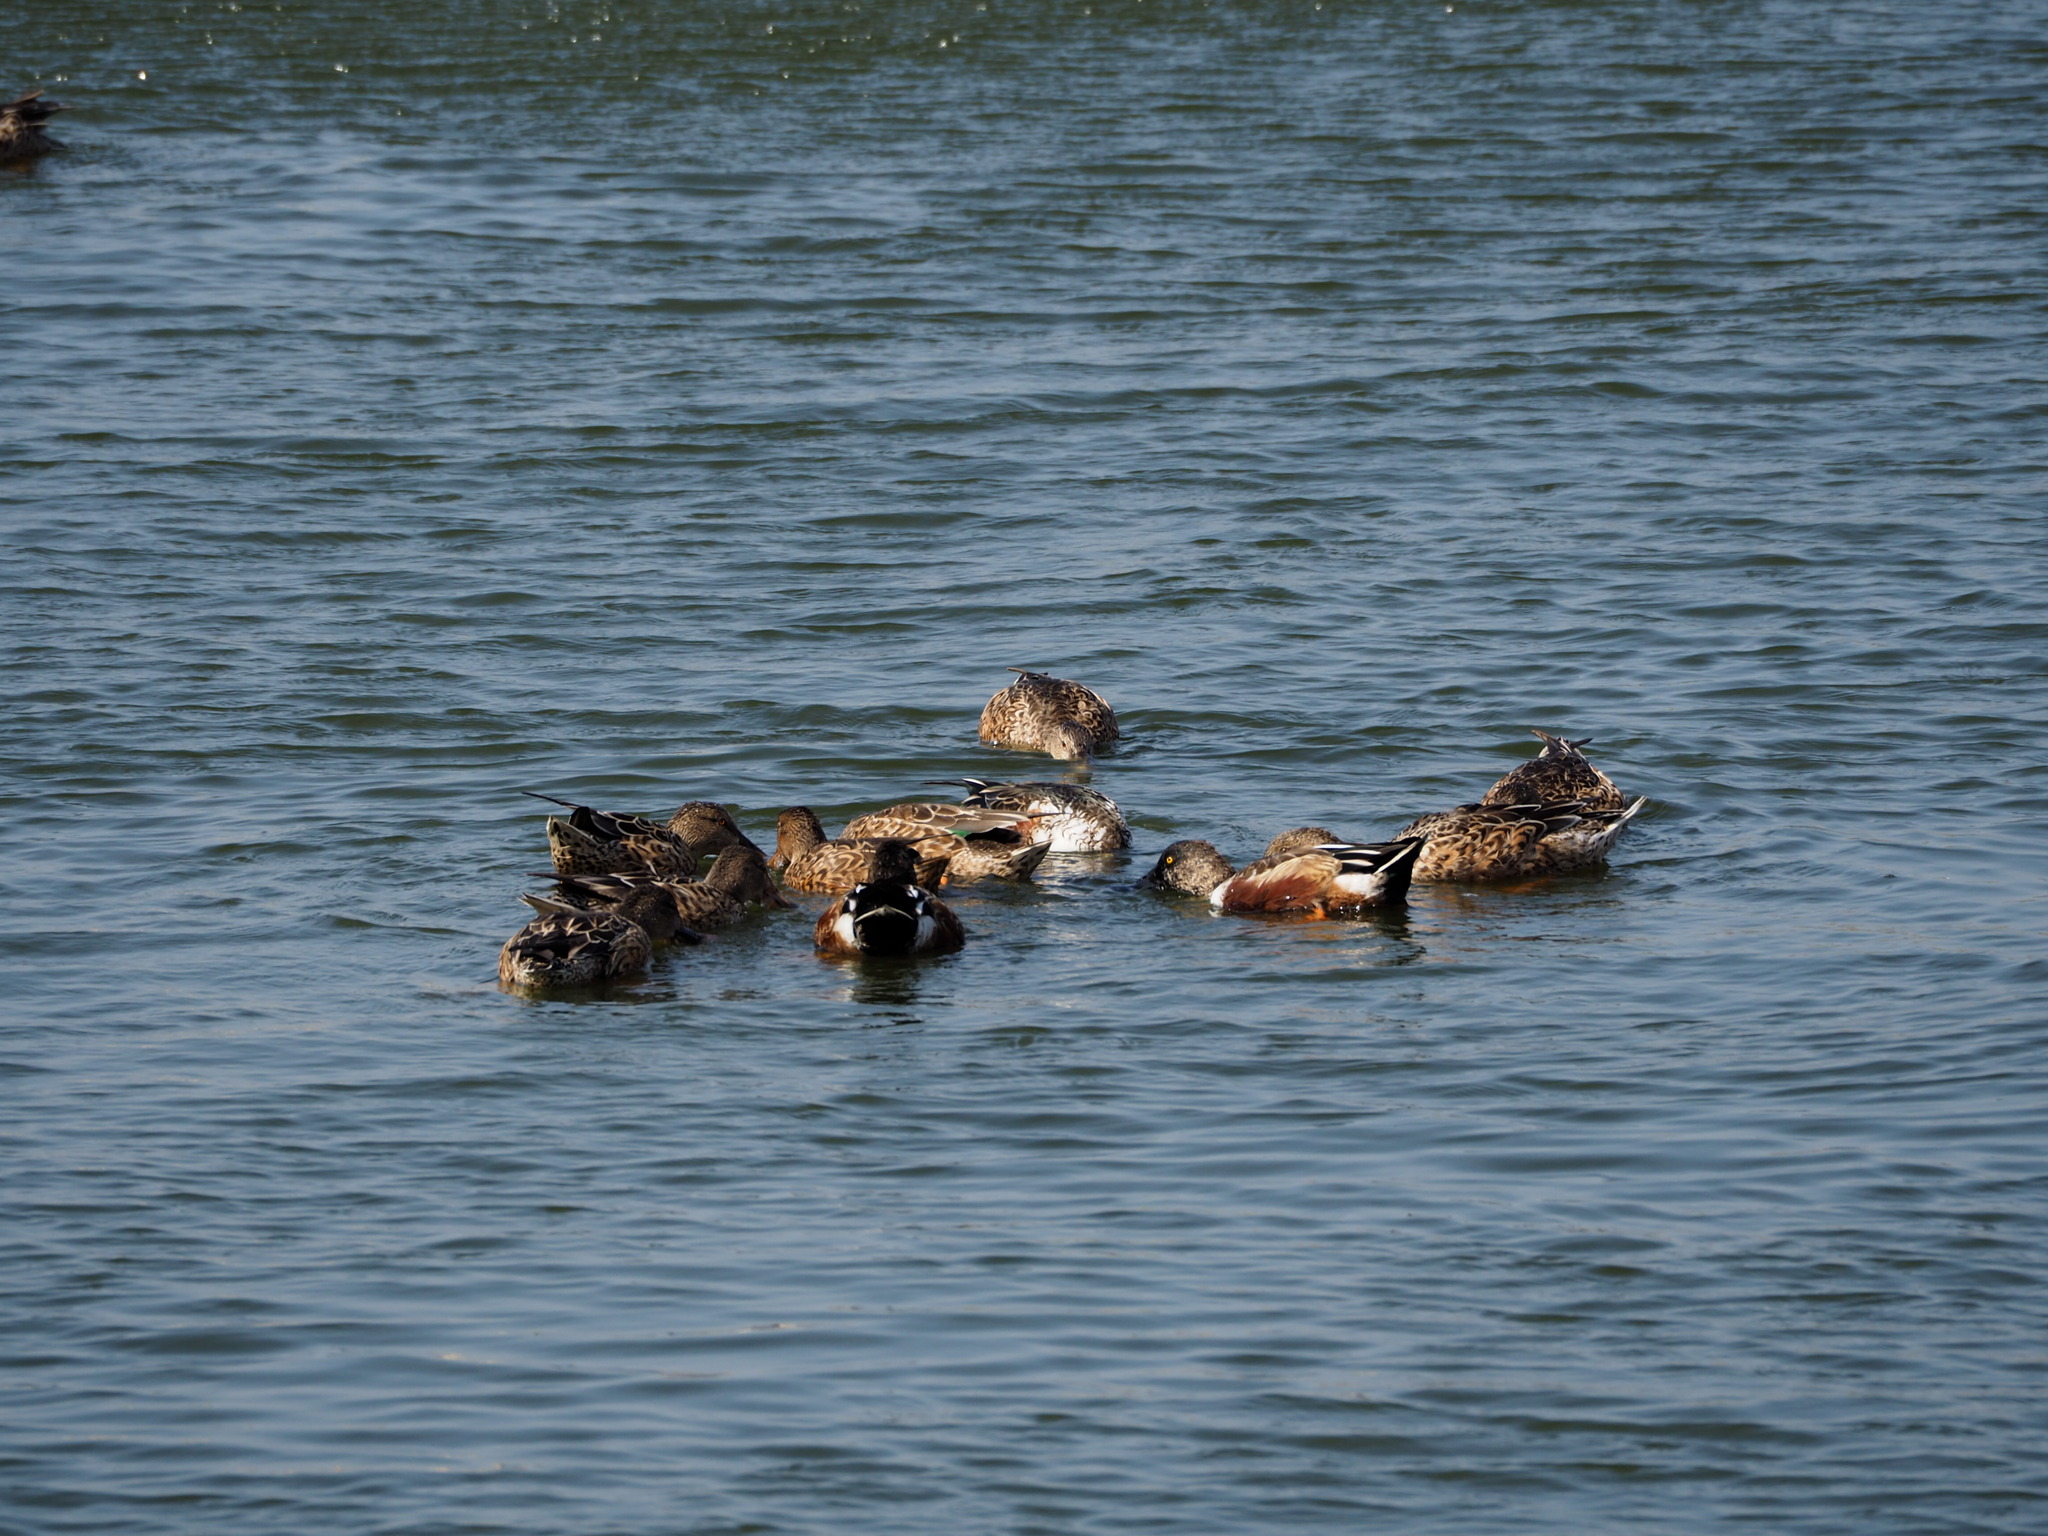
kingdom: Animalia
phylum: Chordata
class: Aves
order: Anseriformes
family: Anatidae
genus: Spatula
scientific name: Spatula clypeata
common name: Northern shoveler
